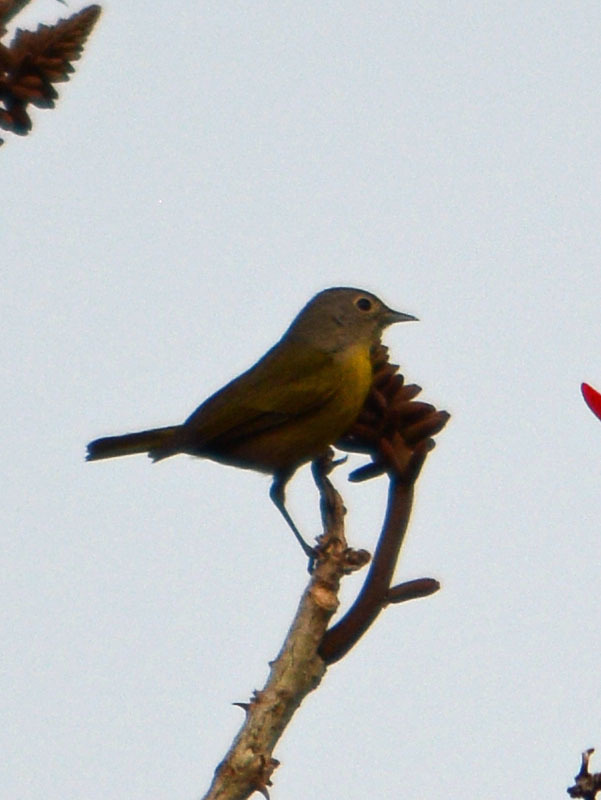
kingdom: Animalia
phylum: Chordata
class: Aves
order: Passeriformes
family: Parulidae
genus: Leiothlypis
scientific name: Leiothlypis ruficapilla
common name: Nashville warbler
